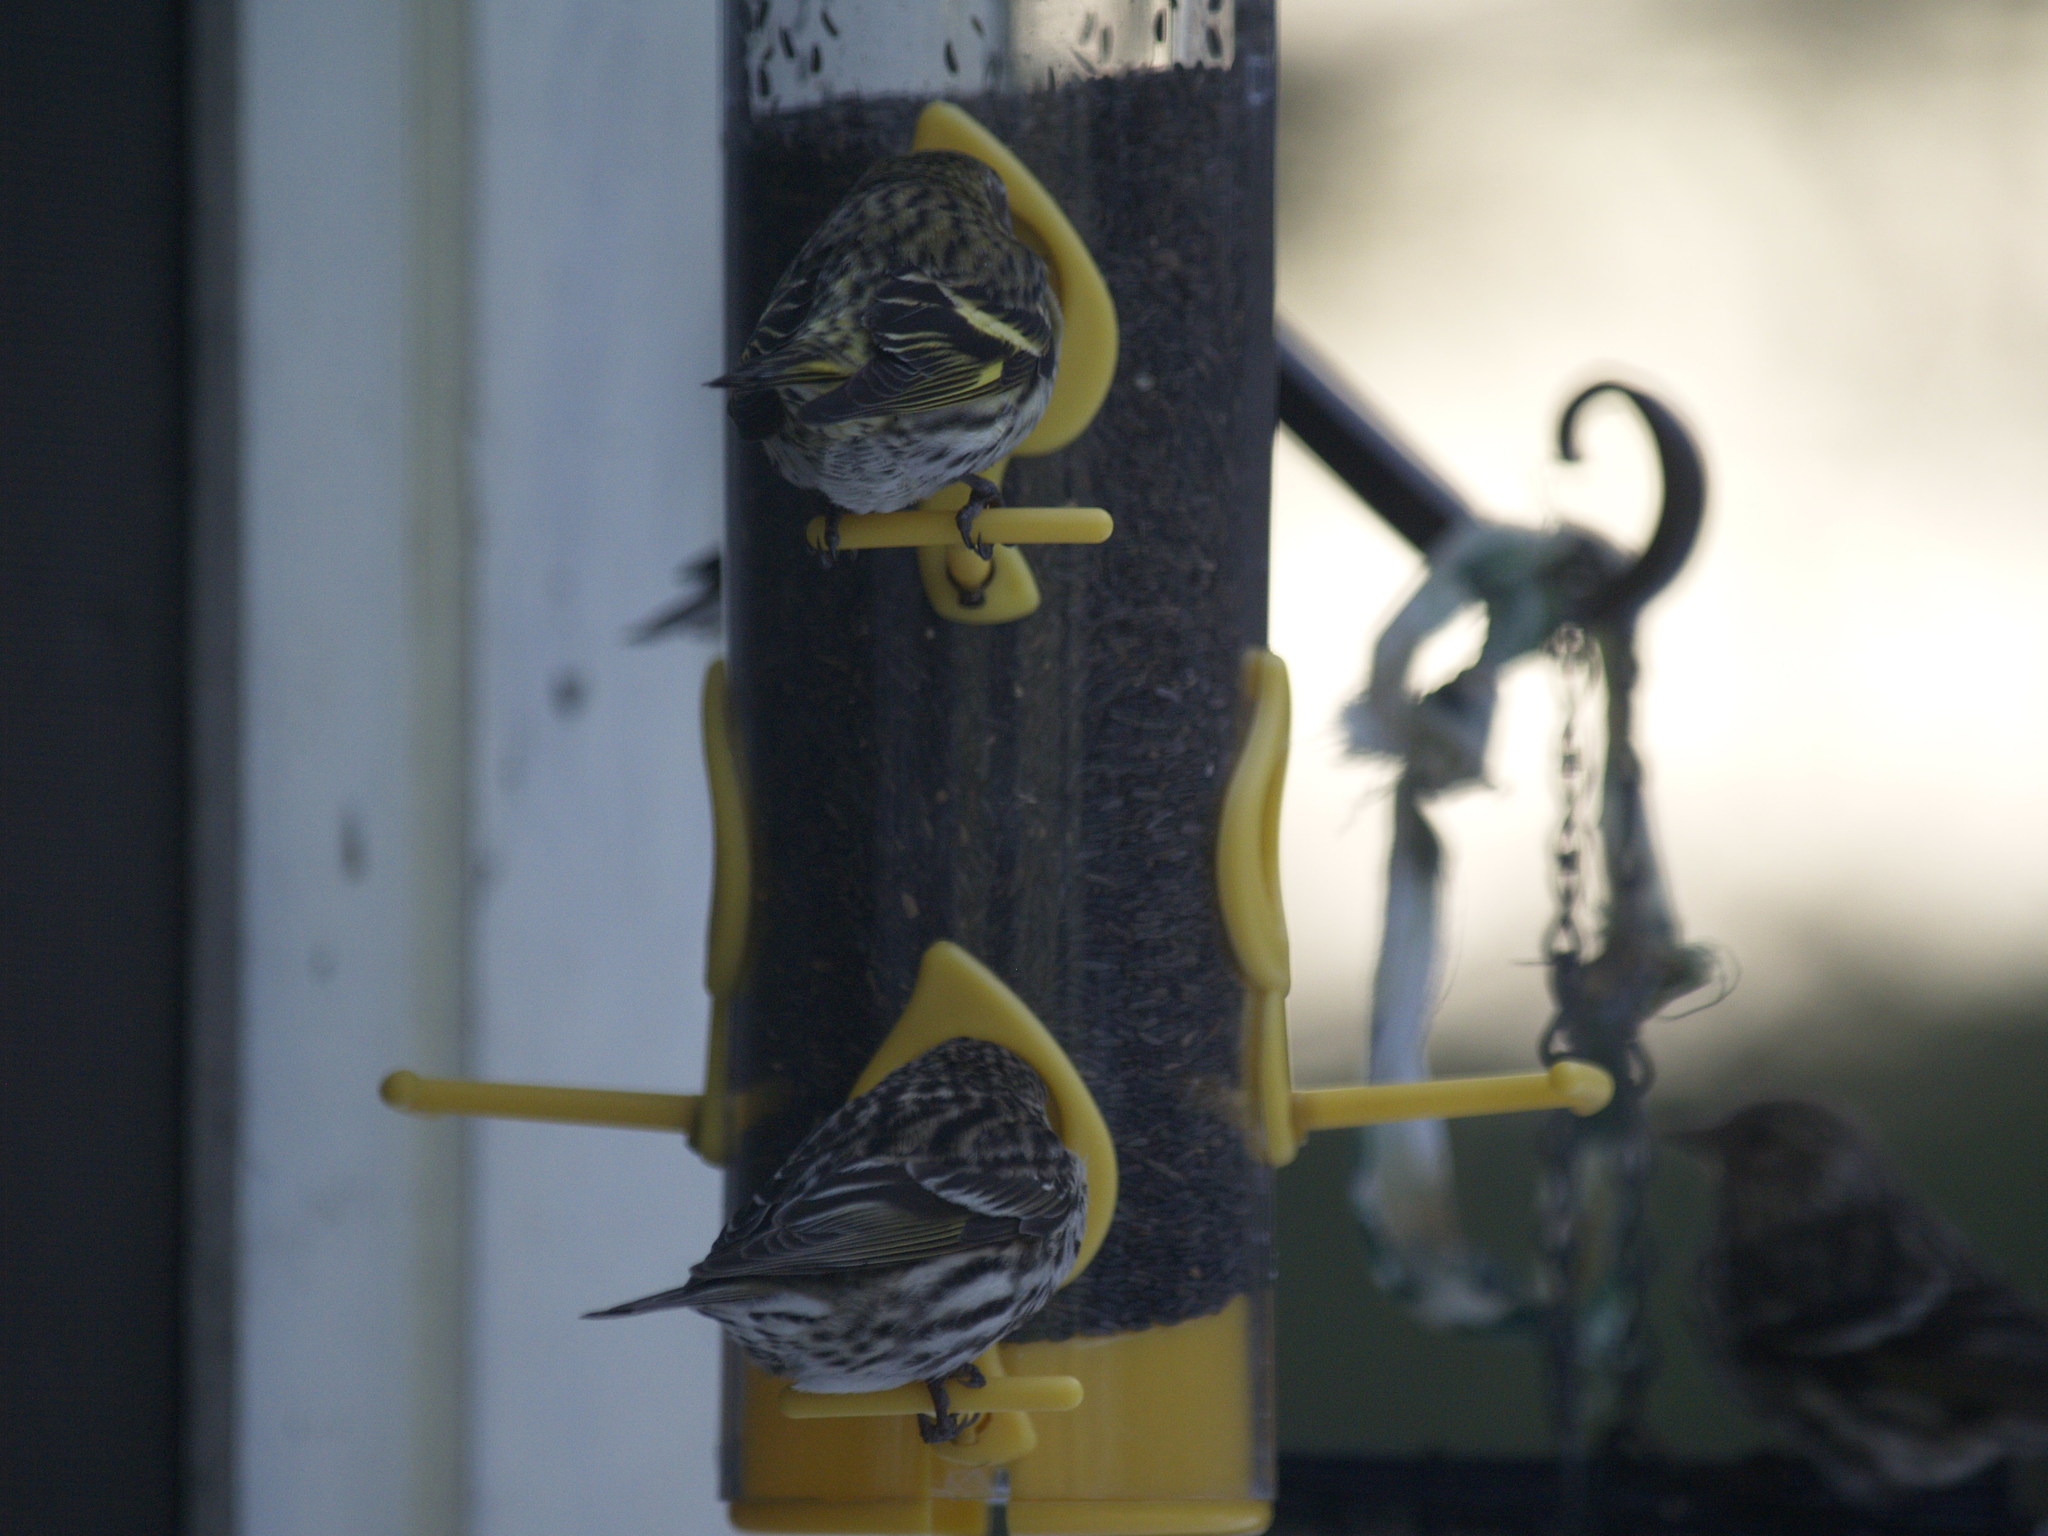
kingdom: Animalia
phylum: Chordata
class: Aves
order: Passeriformes
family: Fringillidae
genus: Spinus
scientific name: Spinus pinus
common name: Pine siskin
